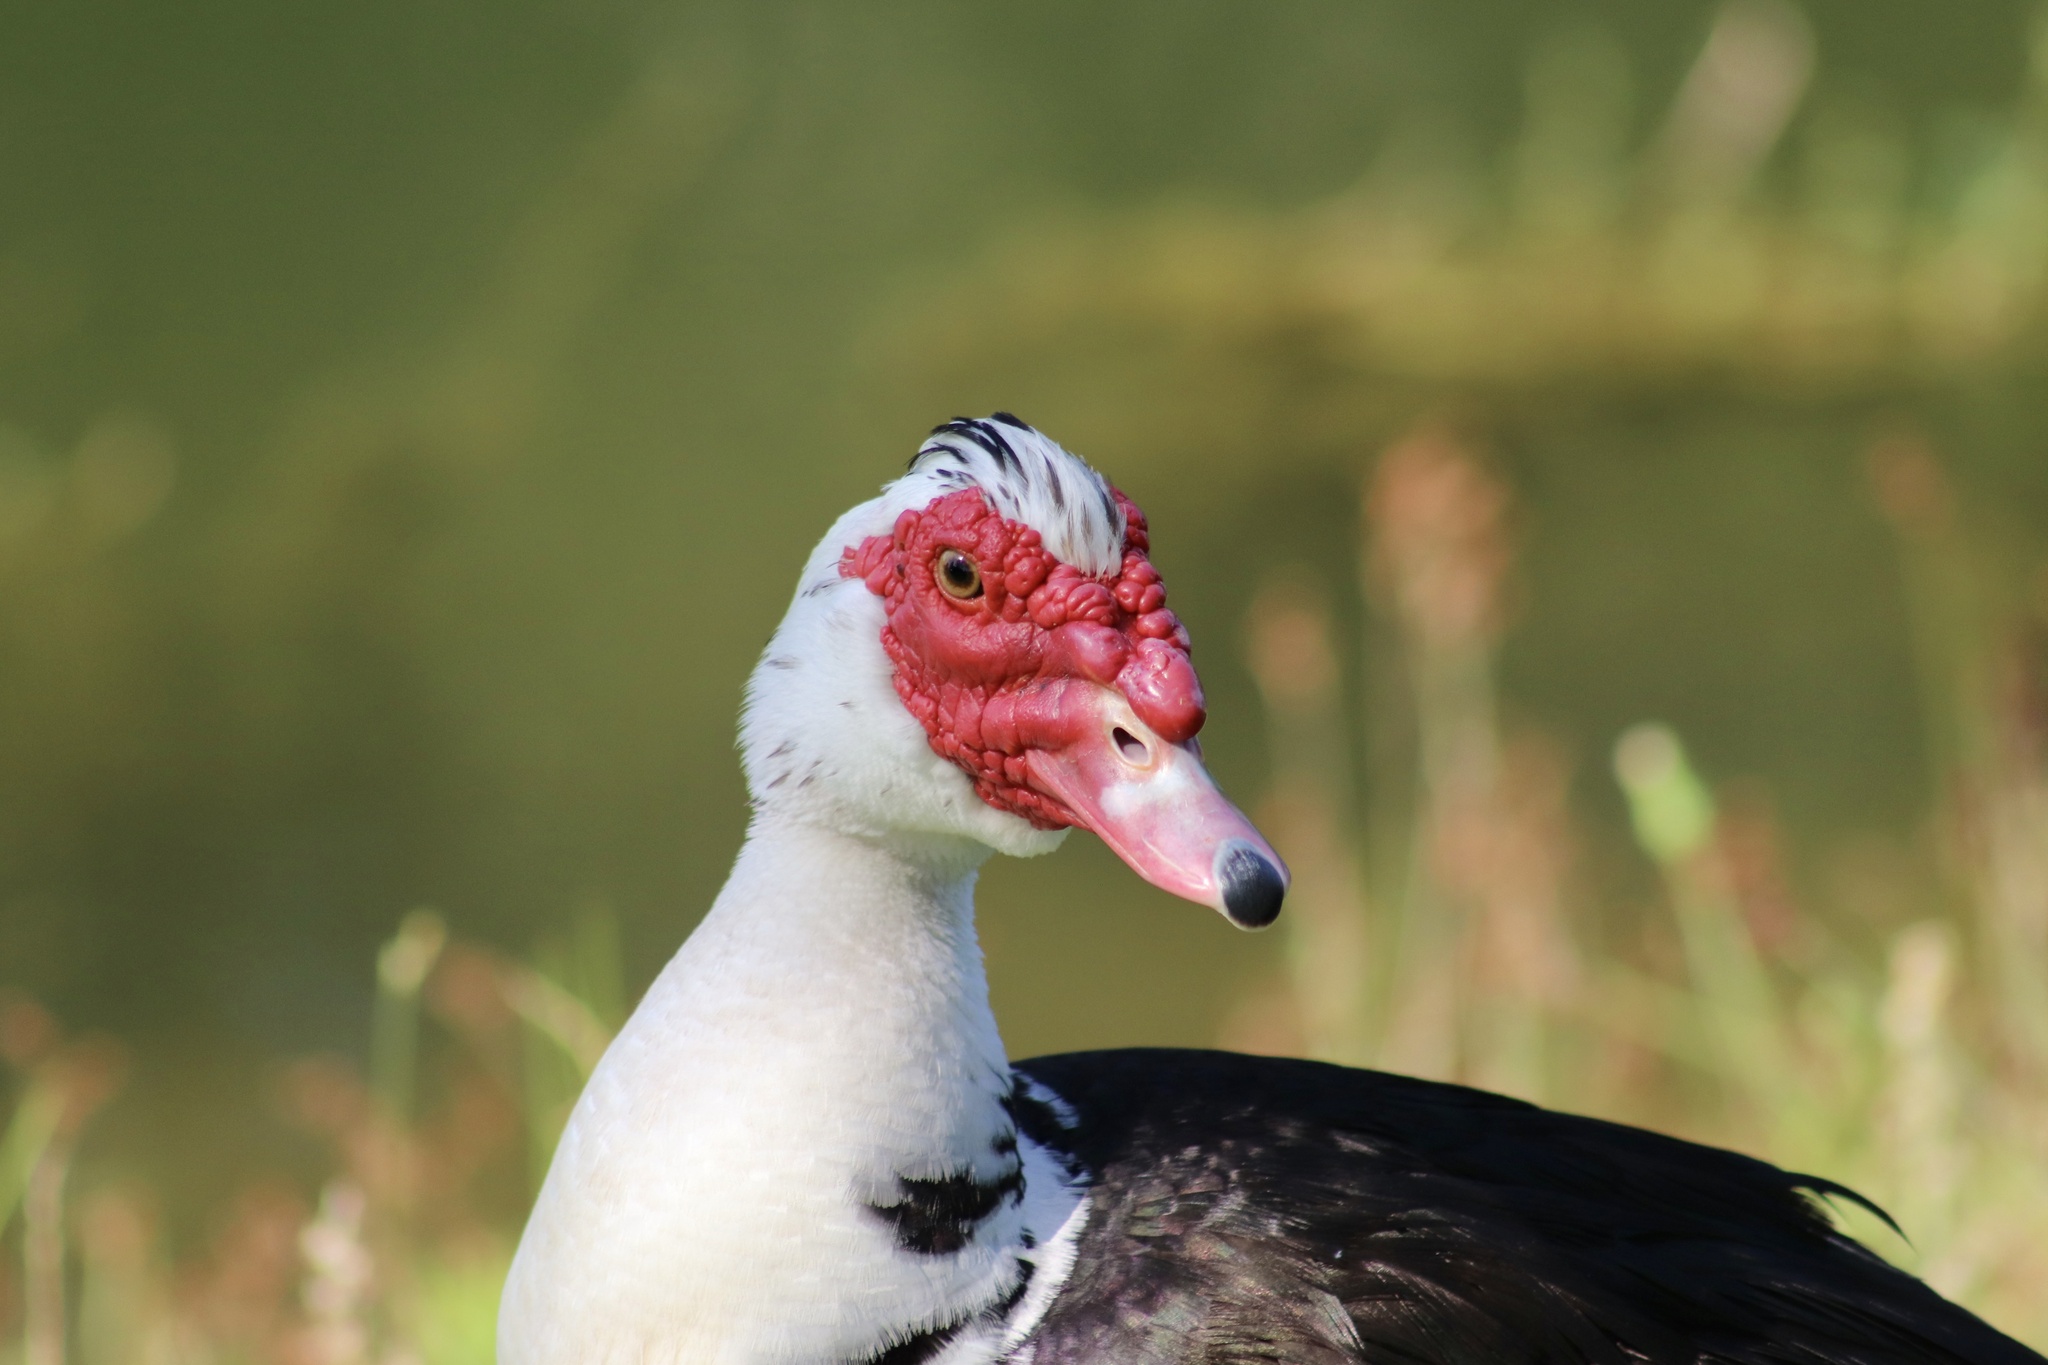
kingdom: Animalia
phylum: Chordata
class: Aves
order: Anseriformes
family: Anatidae
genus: Cairina
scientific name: Cairina moschata
